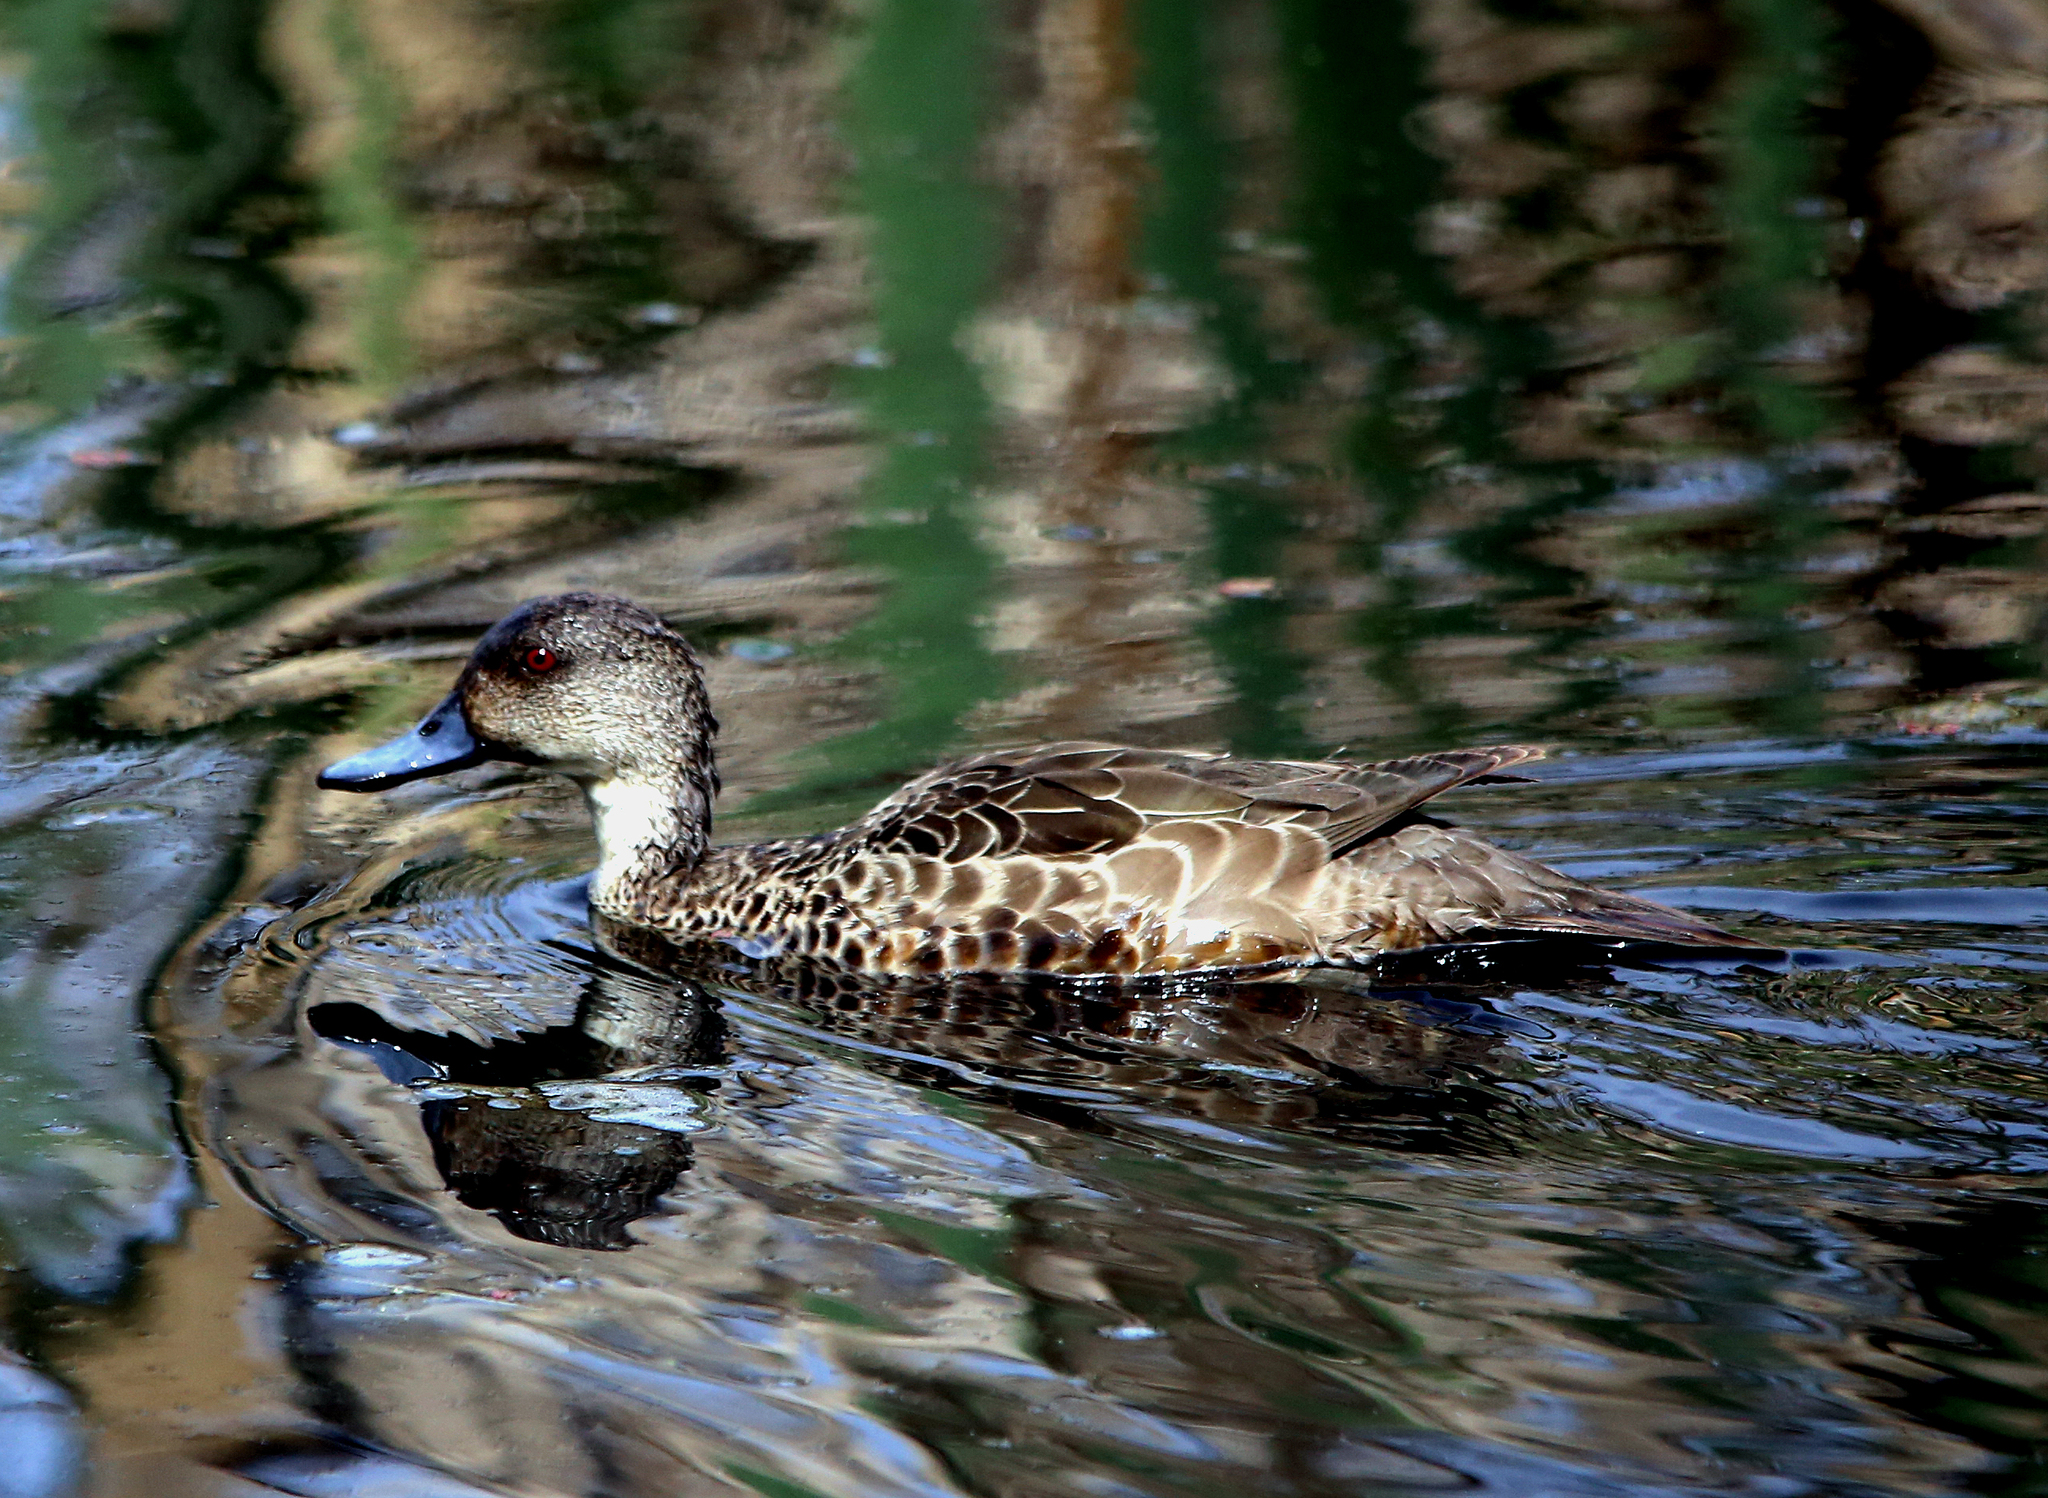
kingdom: Animalia
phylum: Chordata
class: Aves
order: Anseriformes
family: Anatidae
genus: Anas
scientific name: Anas gracilis
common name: Grey teal
